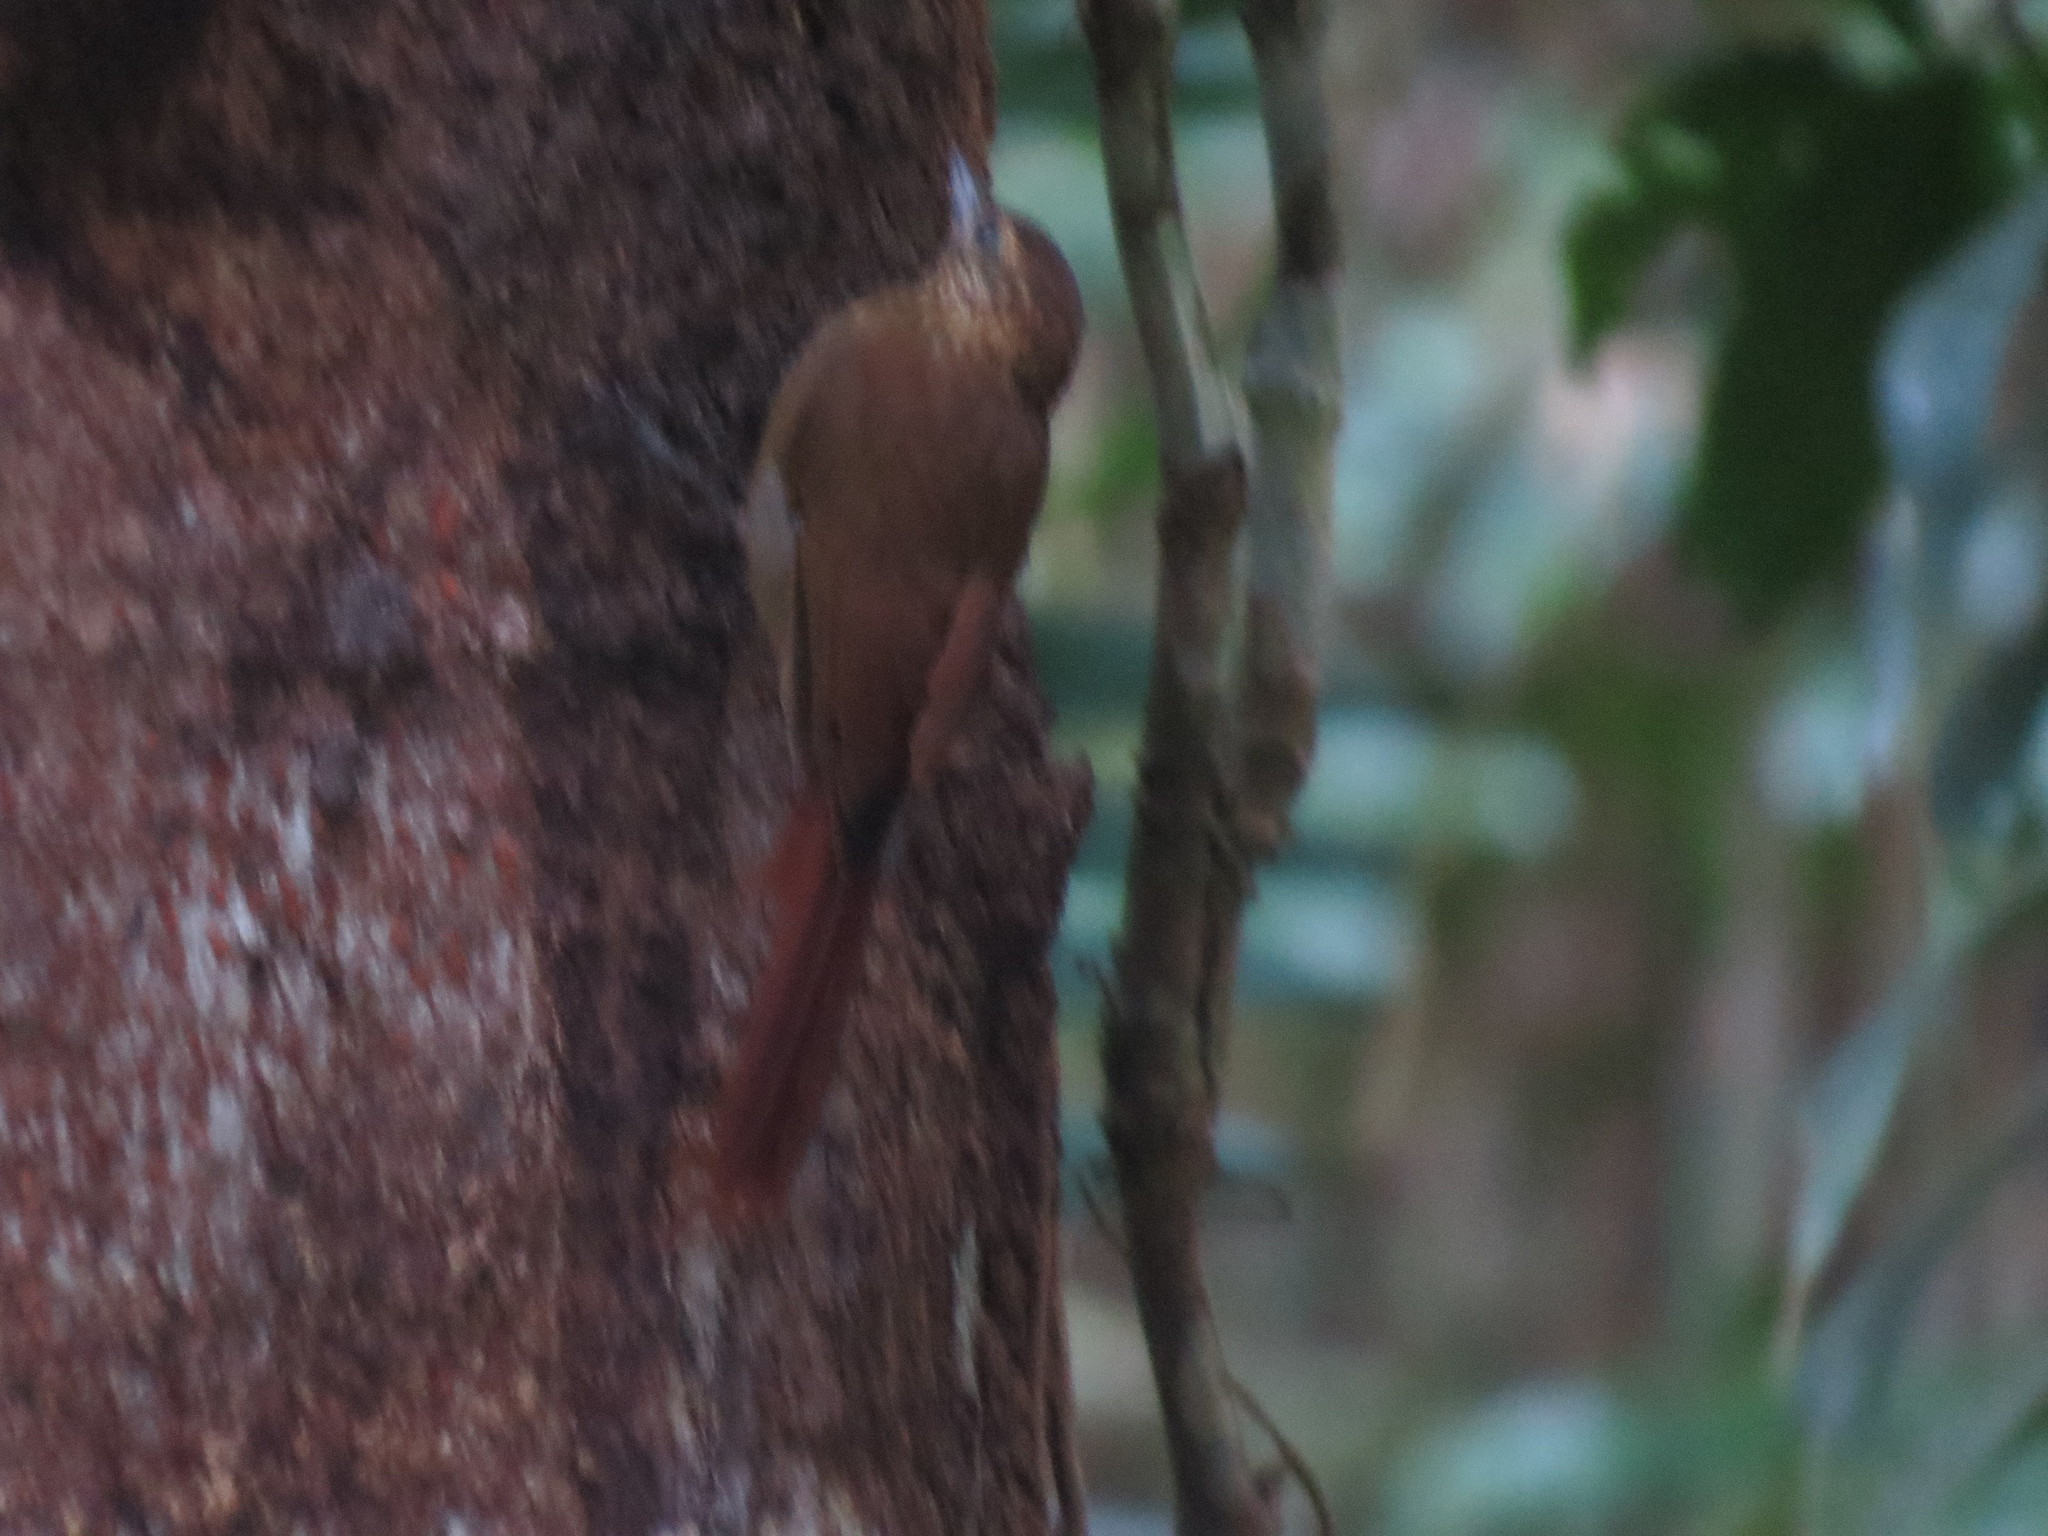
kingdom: Animalia
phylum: Chordata
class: Aves
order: Passeriformes
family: Furnariidae
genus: Glyphorynchus
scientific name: Glyphorynchus spirurus
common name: Wedge-billed woodcreeper
